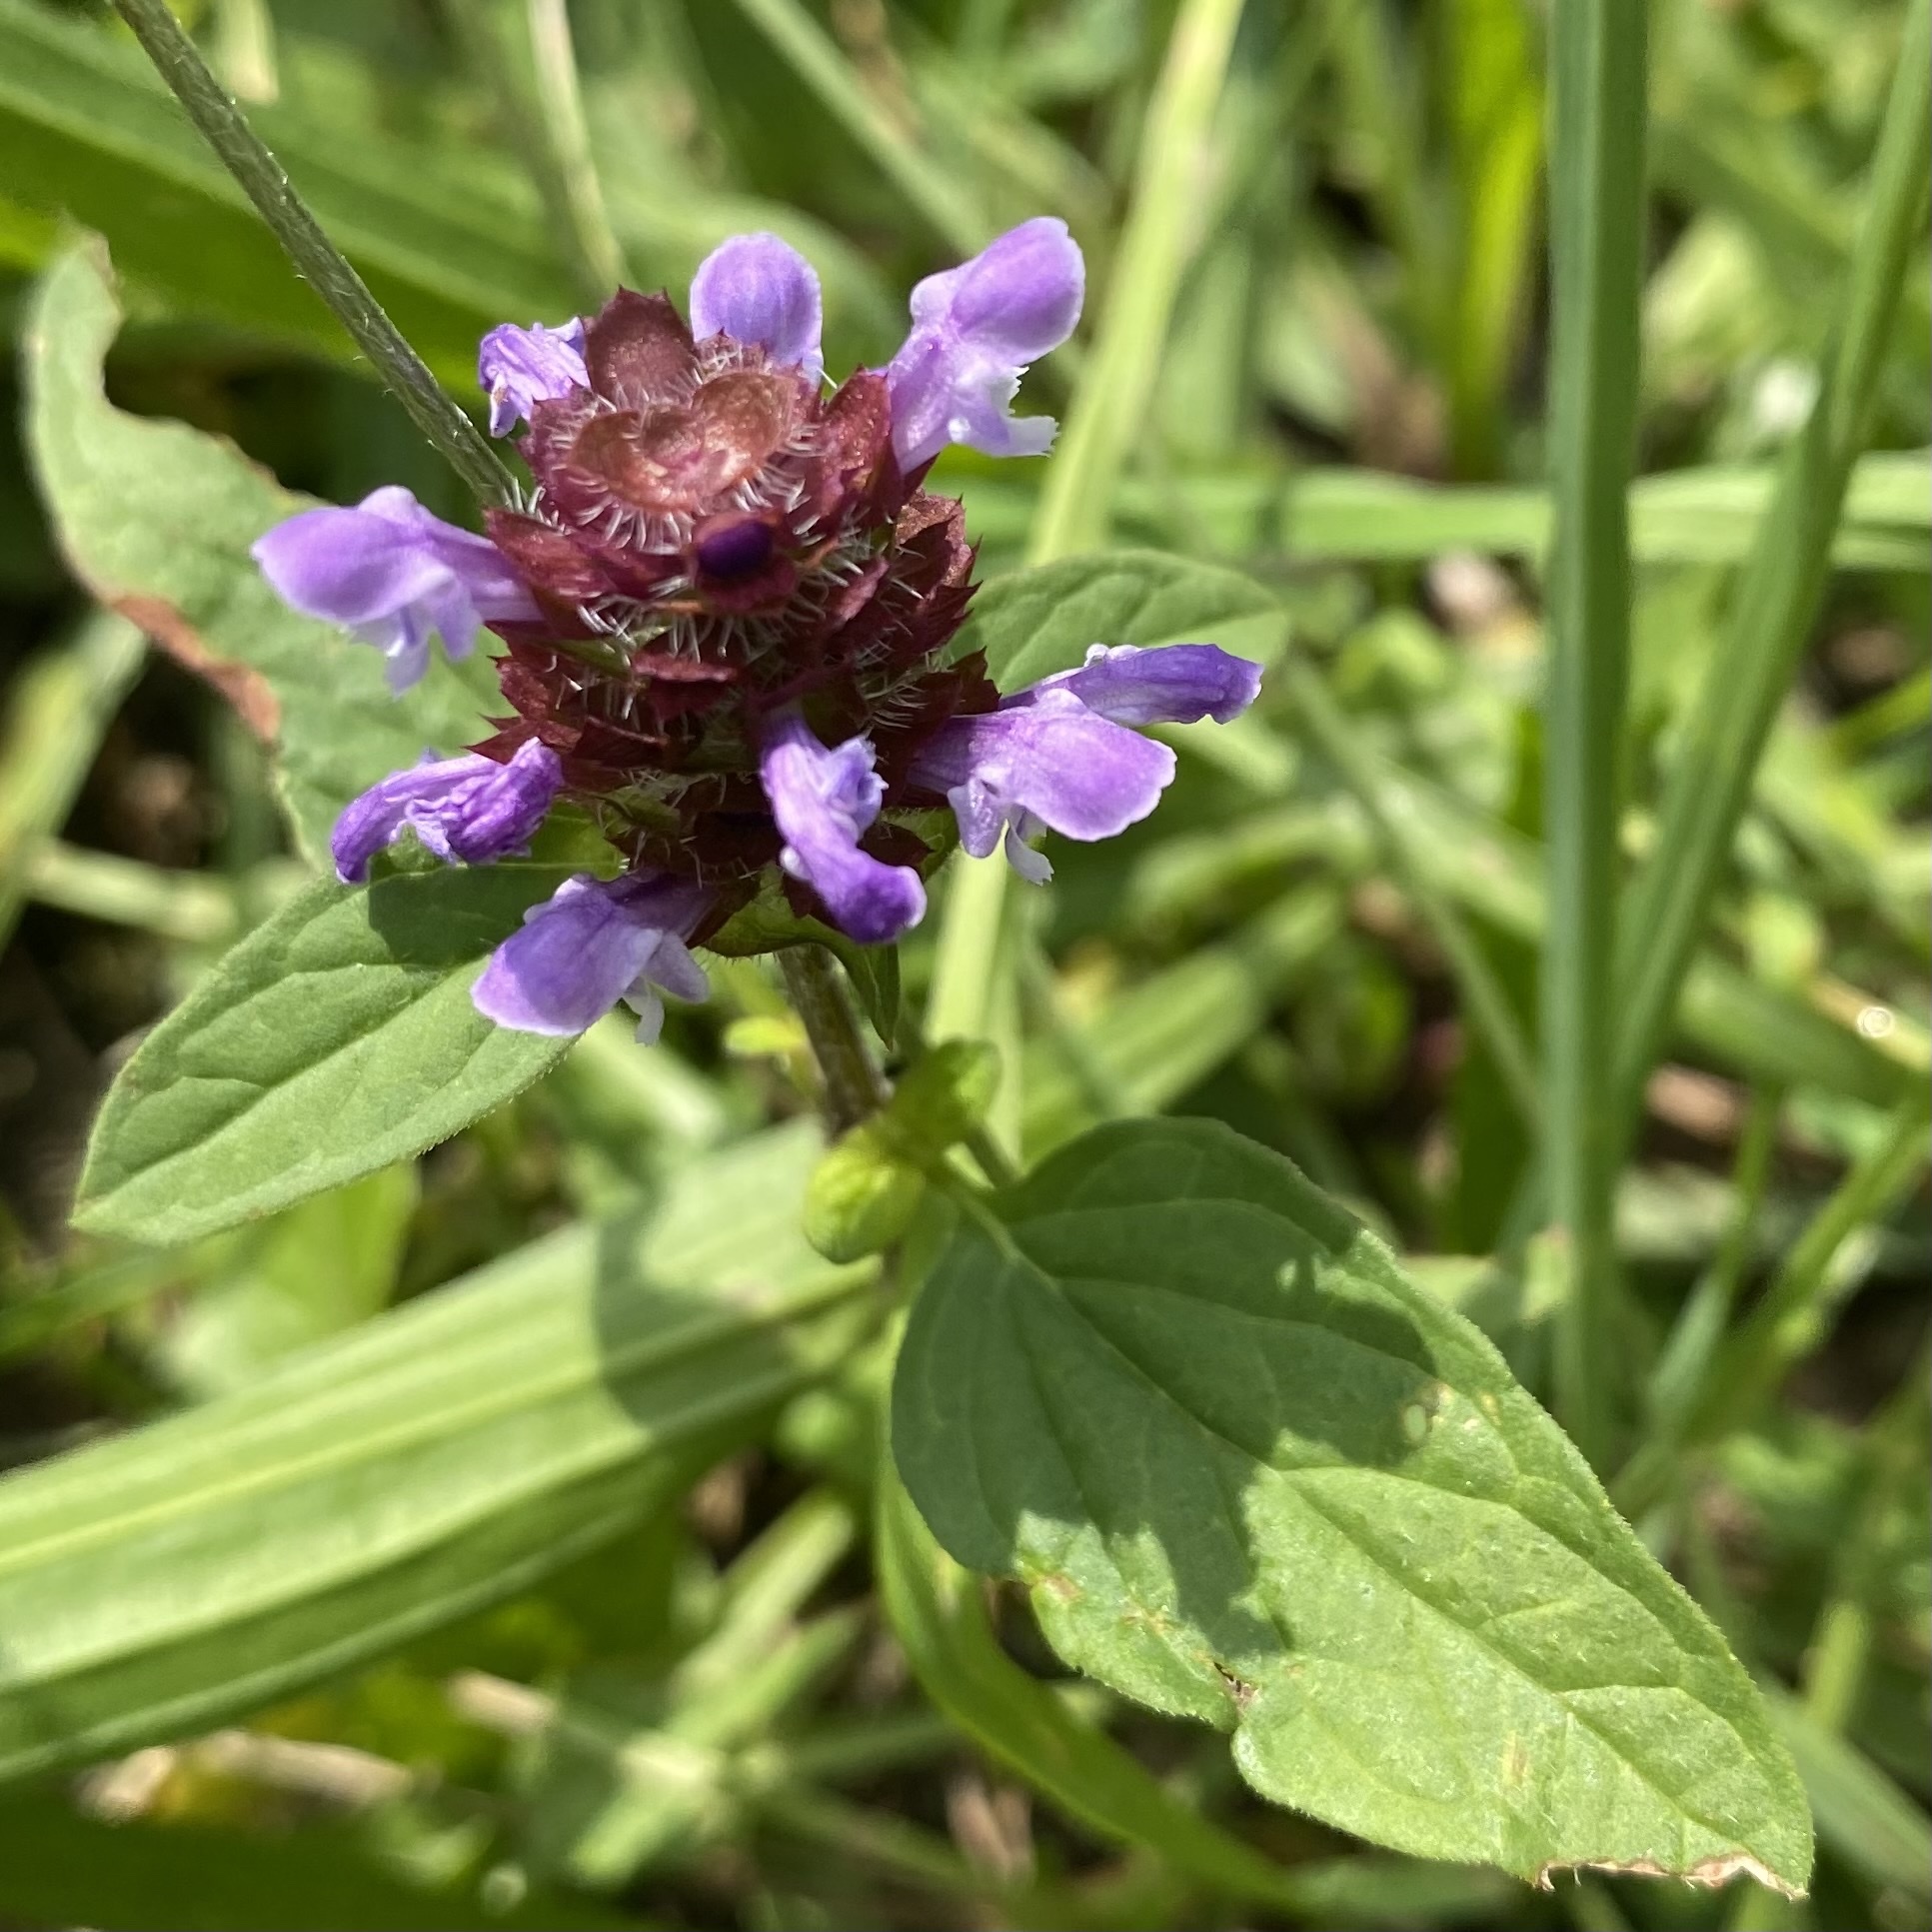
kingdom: Plantae
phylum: Tracheophyta
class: Magnoliopsida
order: Lamiales
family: Lamiaceae
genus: Prunella
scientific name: Prunella vulgaris
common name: Heal-all
